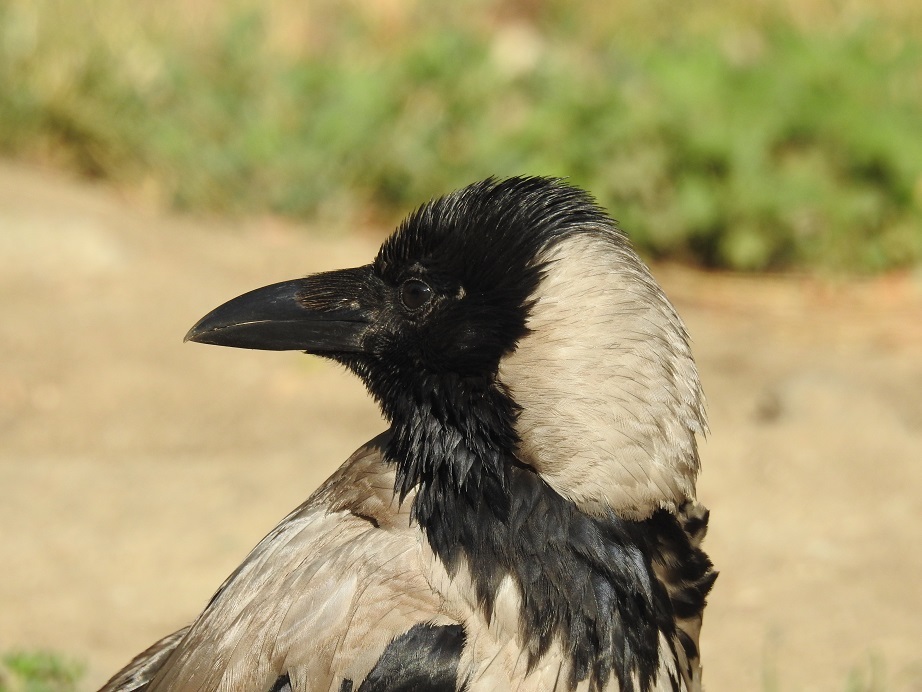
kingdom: Animalia
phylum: Chordata
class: Aves
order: Passeriformes
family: Corvidae
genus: Corvus
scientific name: Corvus cornix
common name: Hooded crow
